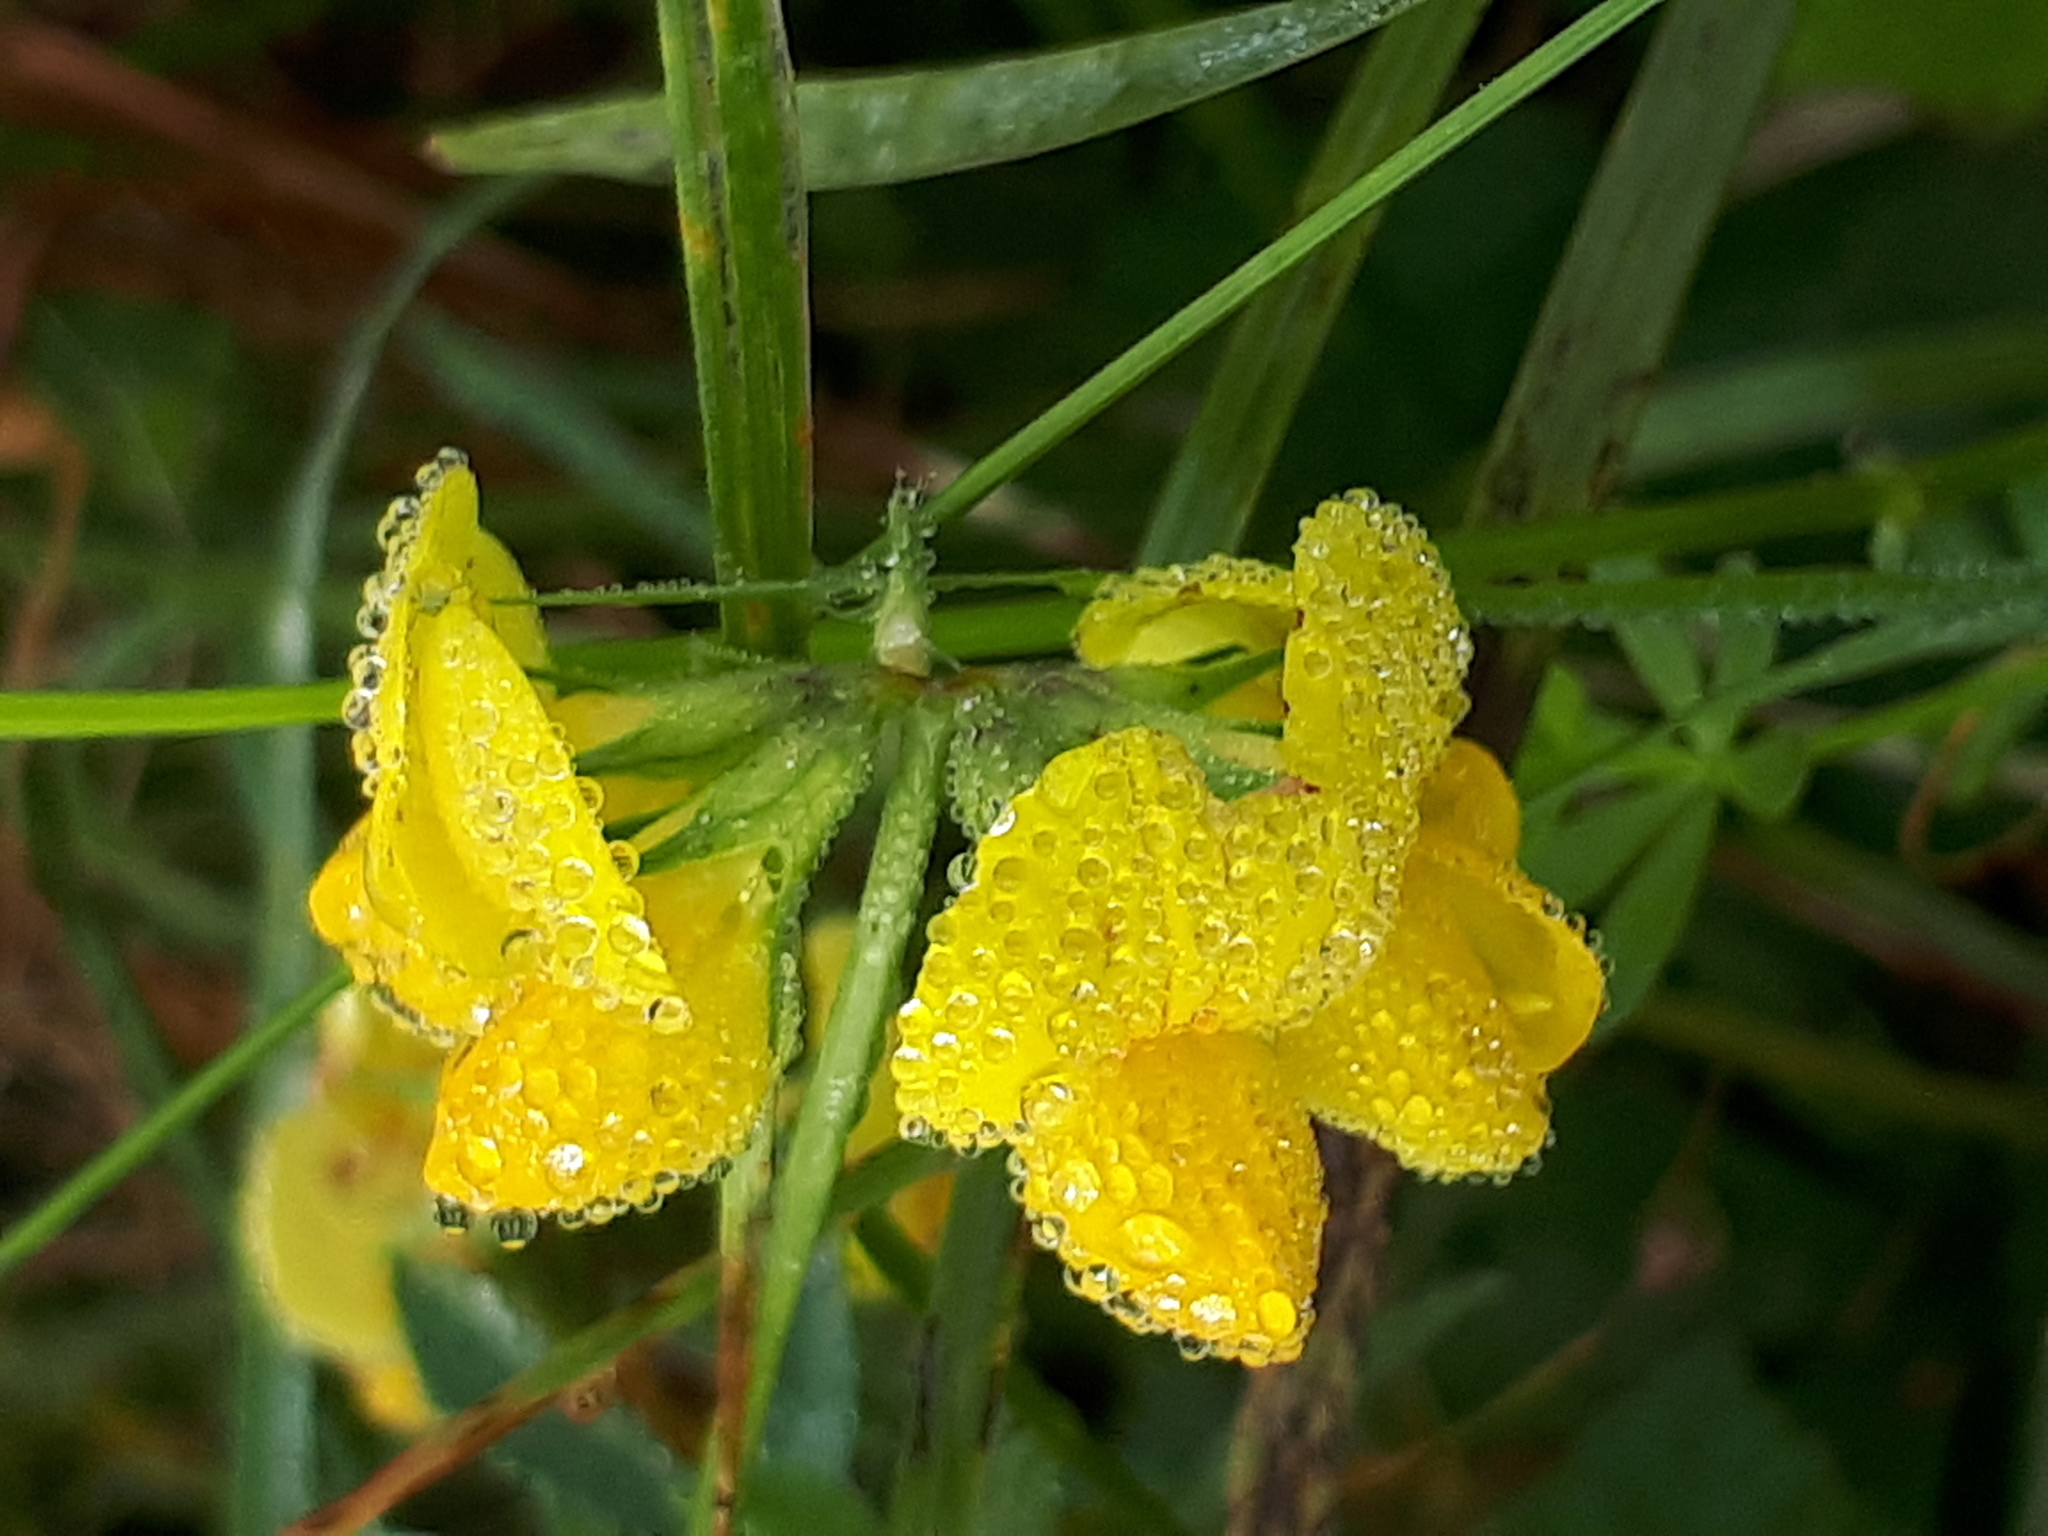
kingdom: Plantae
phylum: Tracheophyta
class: Magnoliopsida
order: Fabales
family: Fabaceae
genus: Lotus
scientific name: Lotus corniculatus
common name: Common bird's-foot-trefoil
